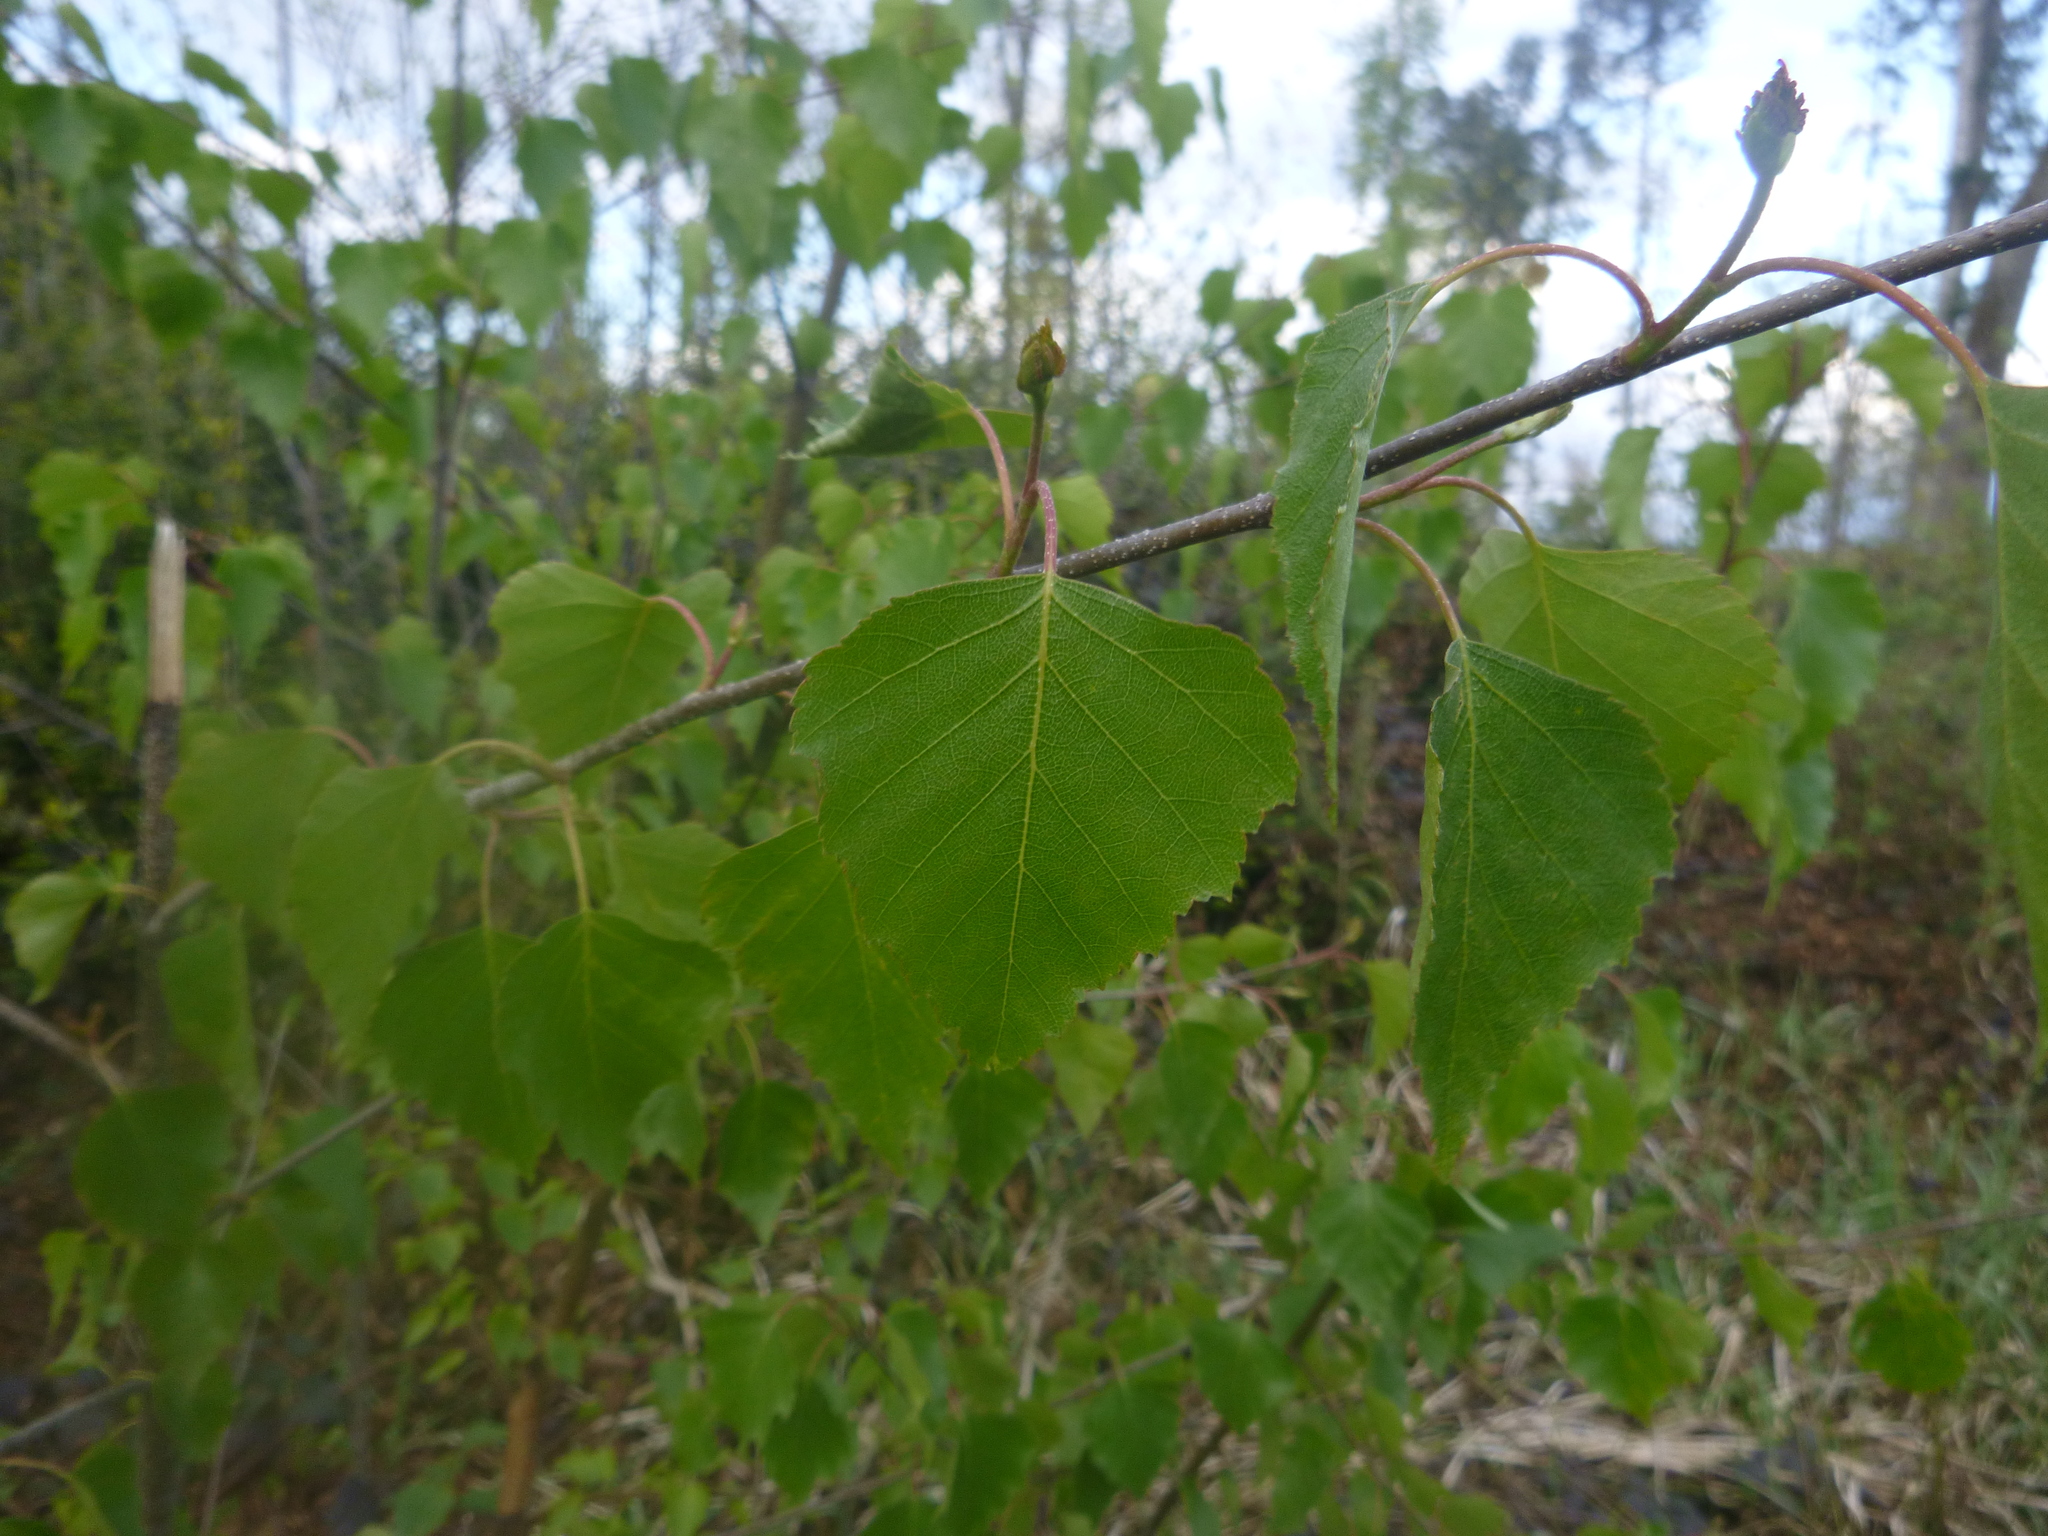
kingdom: Plantae
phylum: Tracheophyta
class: Magnoliopsida
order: Fagales
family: Betulaceae
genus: Betula
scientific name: Betula pendula
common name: Silver birch
